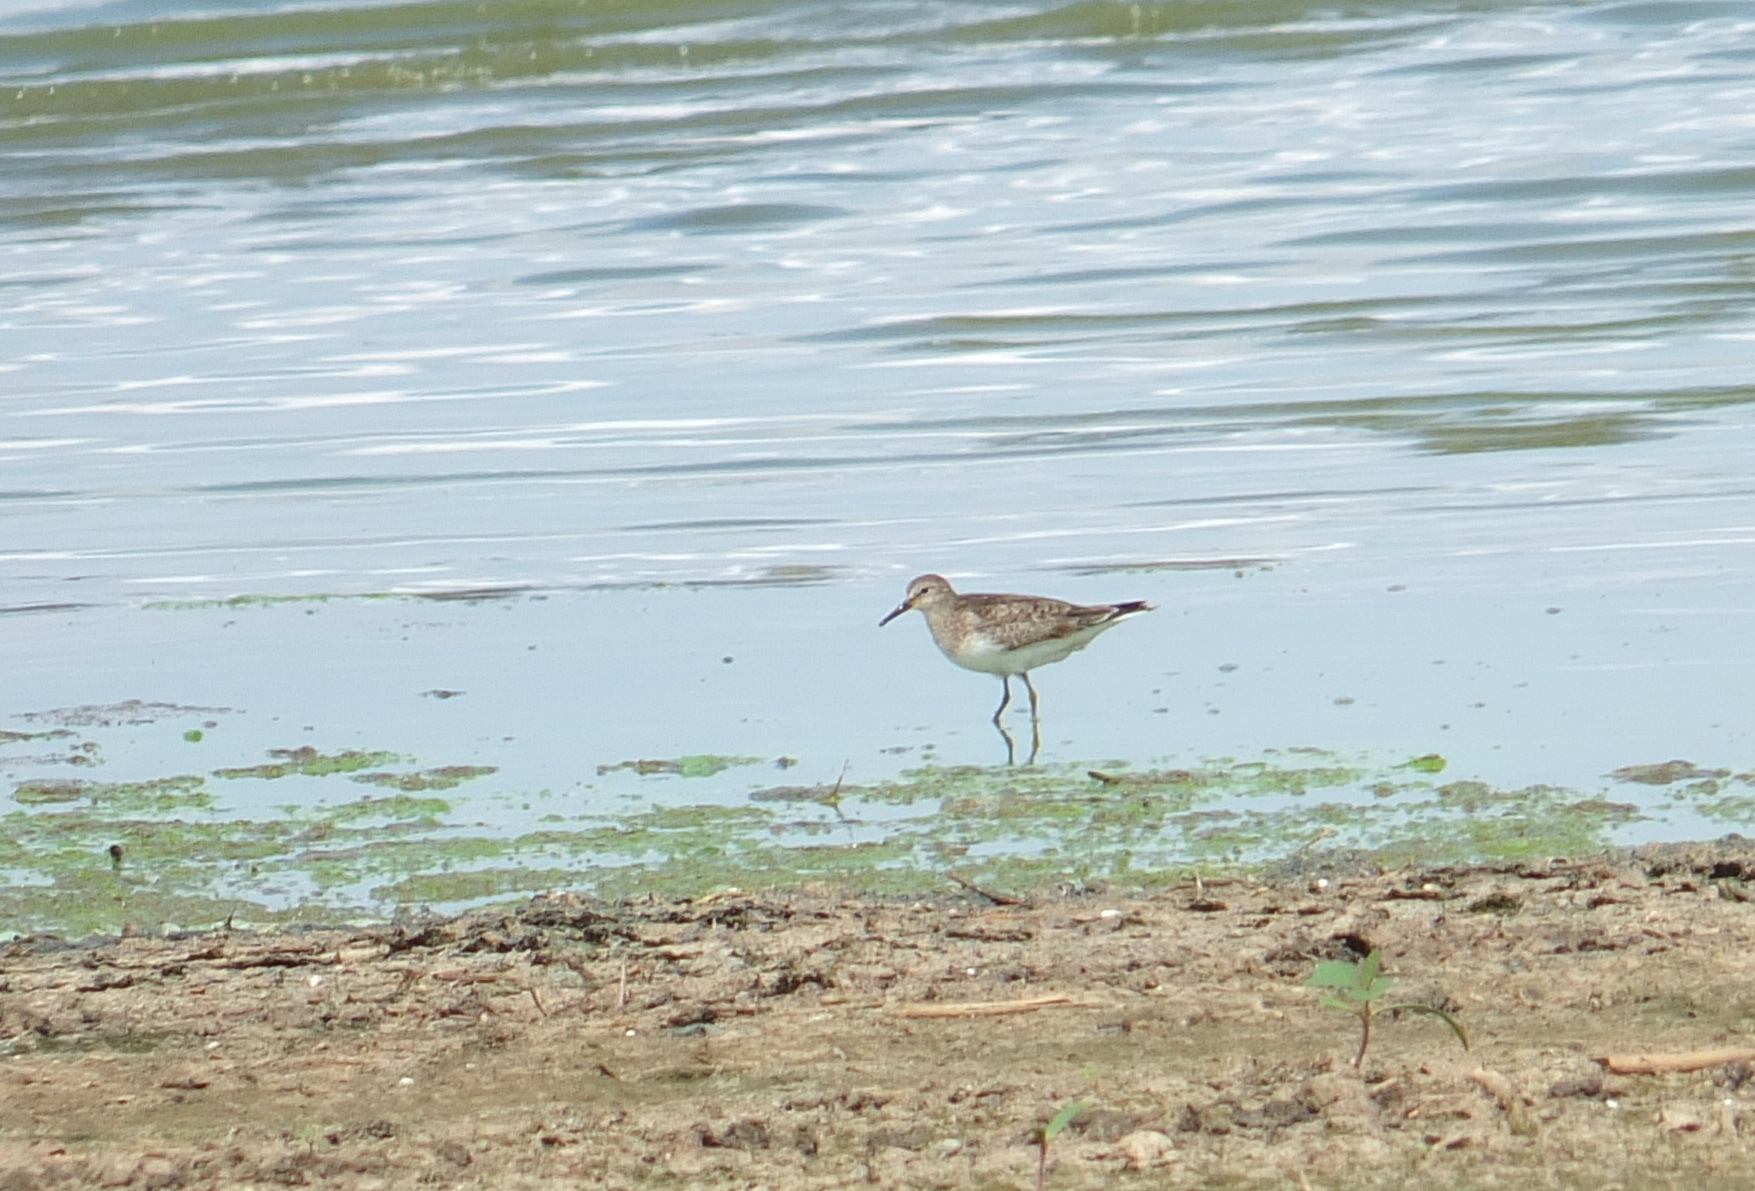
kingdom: Animalia
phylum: Chordata
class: Aves
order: Charadriiformes
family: Scolopacidae
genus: Calidris
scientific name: Calidris temminckii
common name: Temminck's stint
